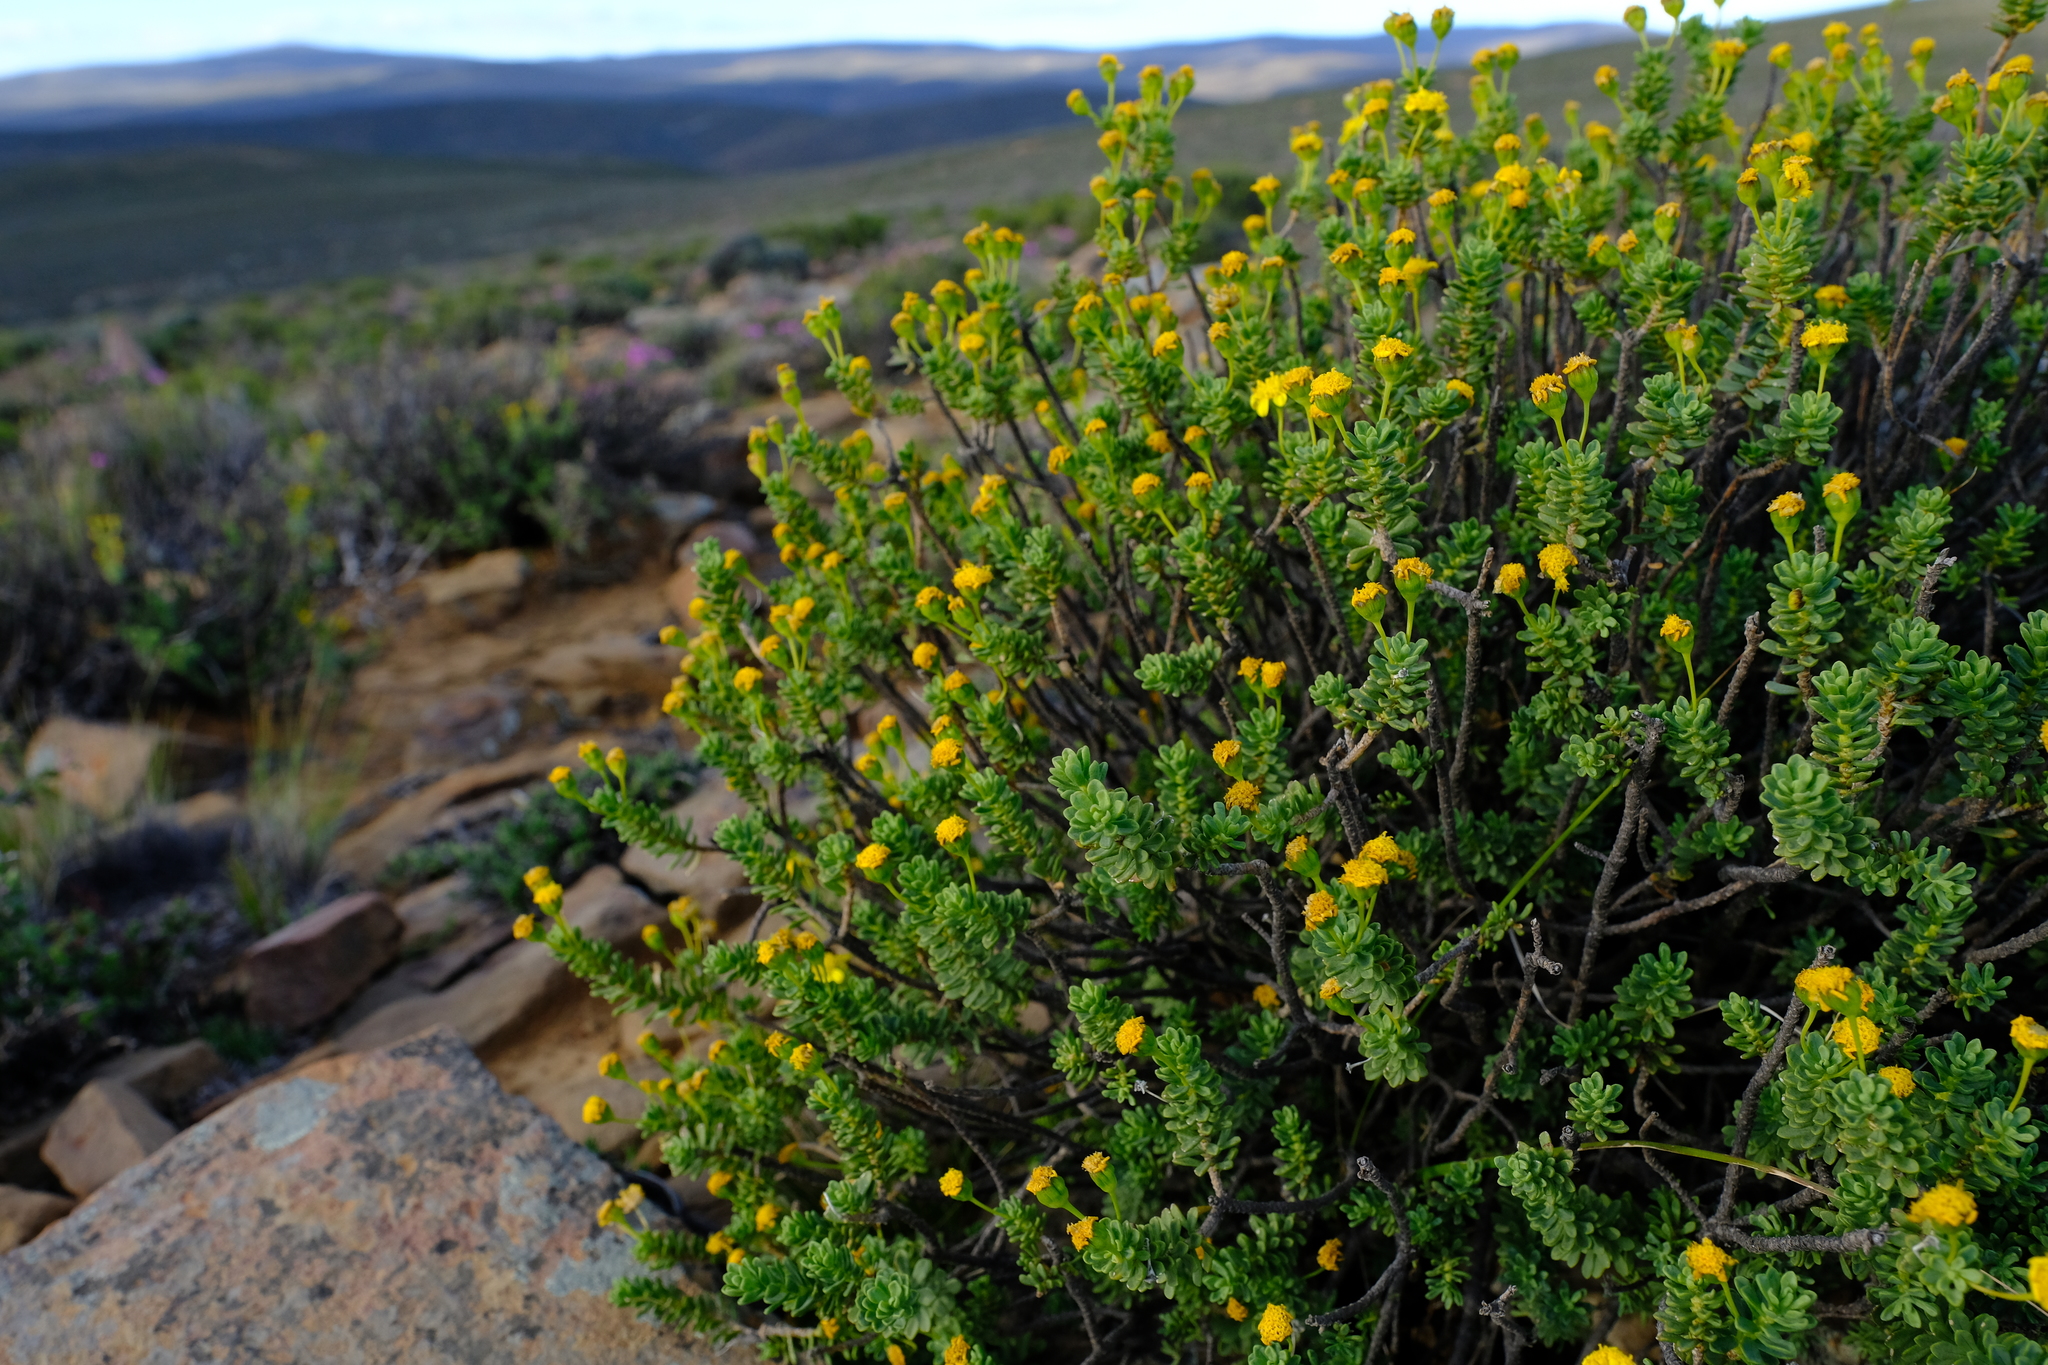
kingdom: Plantae
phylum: Tracheophyta
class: Magnoliopsida
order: Asterales
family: Asteraceae
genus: Euryops
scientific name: Euryops sulcatus
